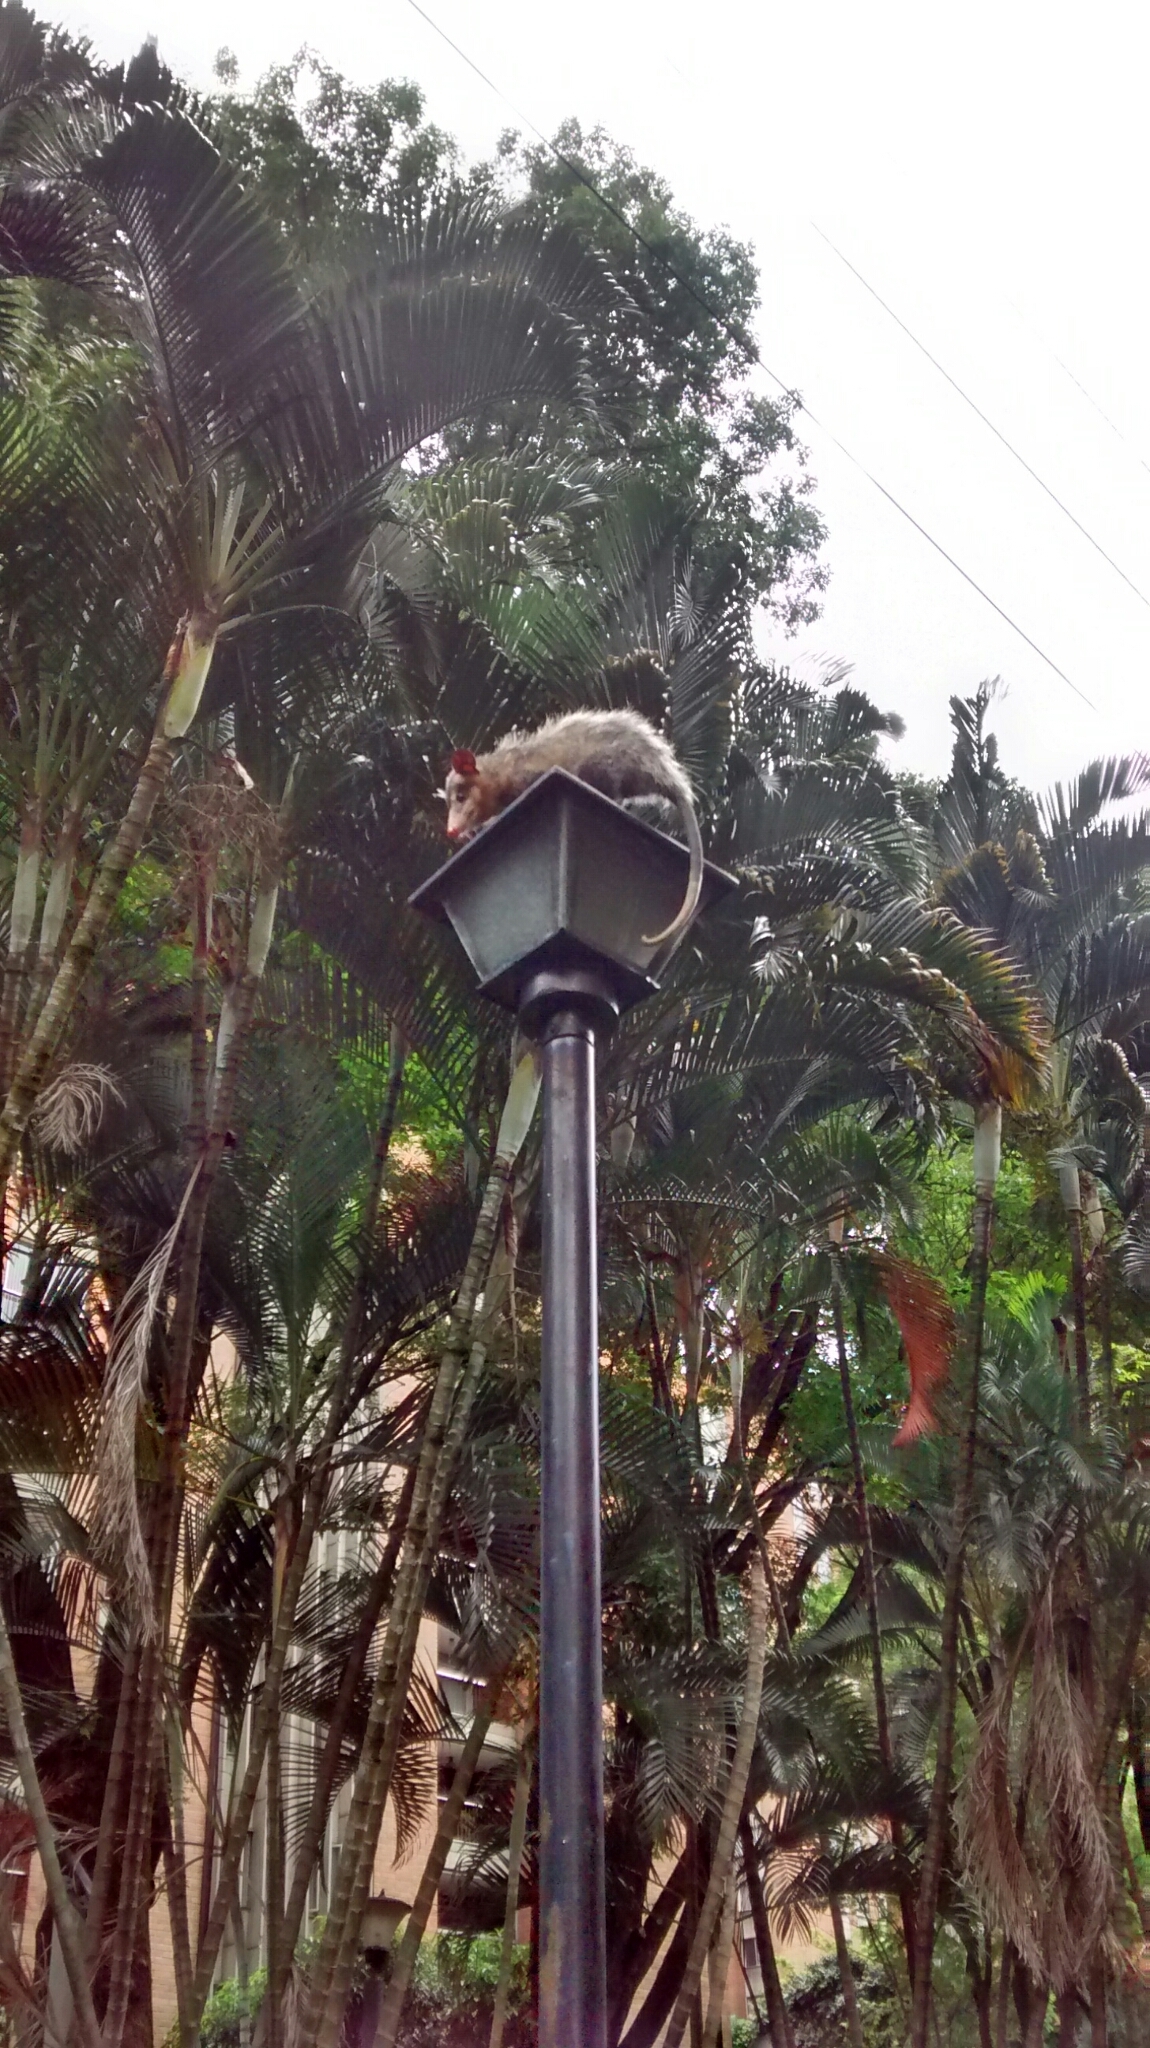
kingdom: Animalia
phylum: Chordata
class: Mammalia
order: Didelphimorphia
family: Didelphidae
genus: Didelphis
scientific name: Didelphis marsupialis
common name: Common opossum
